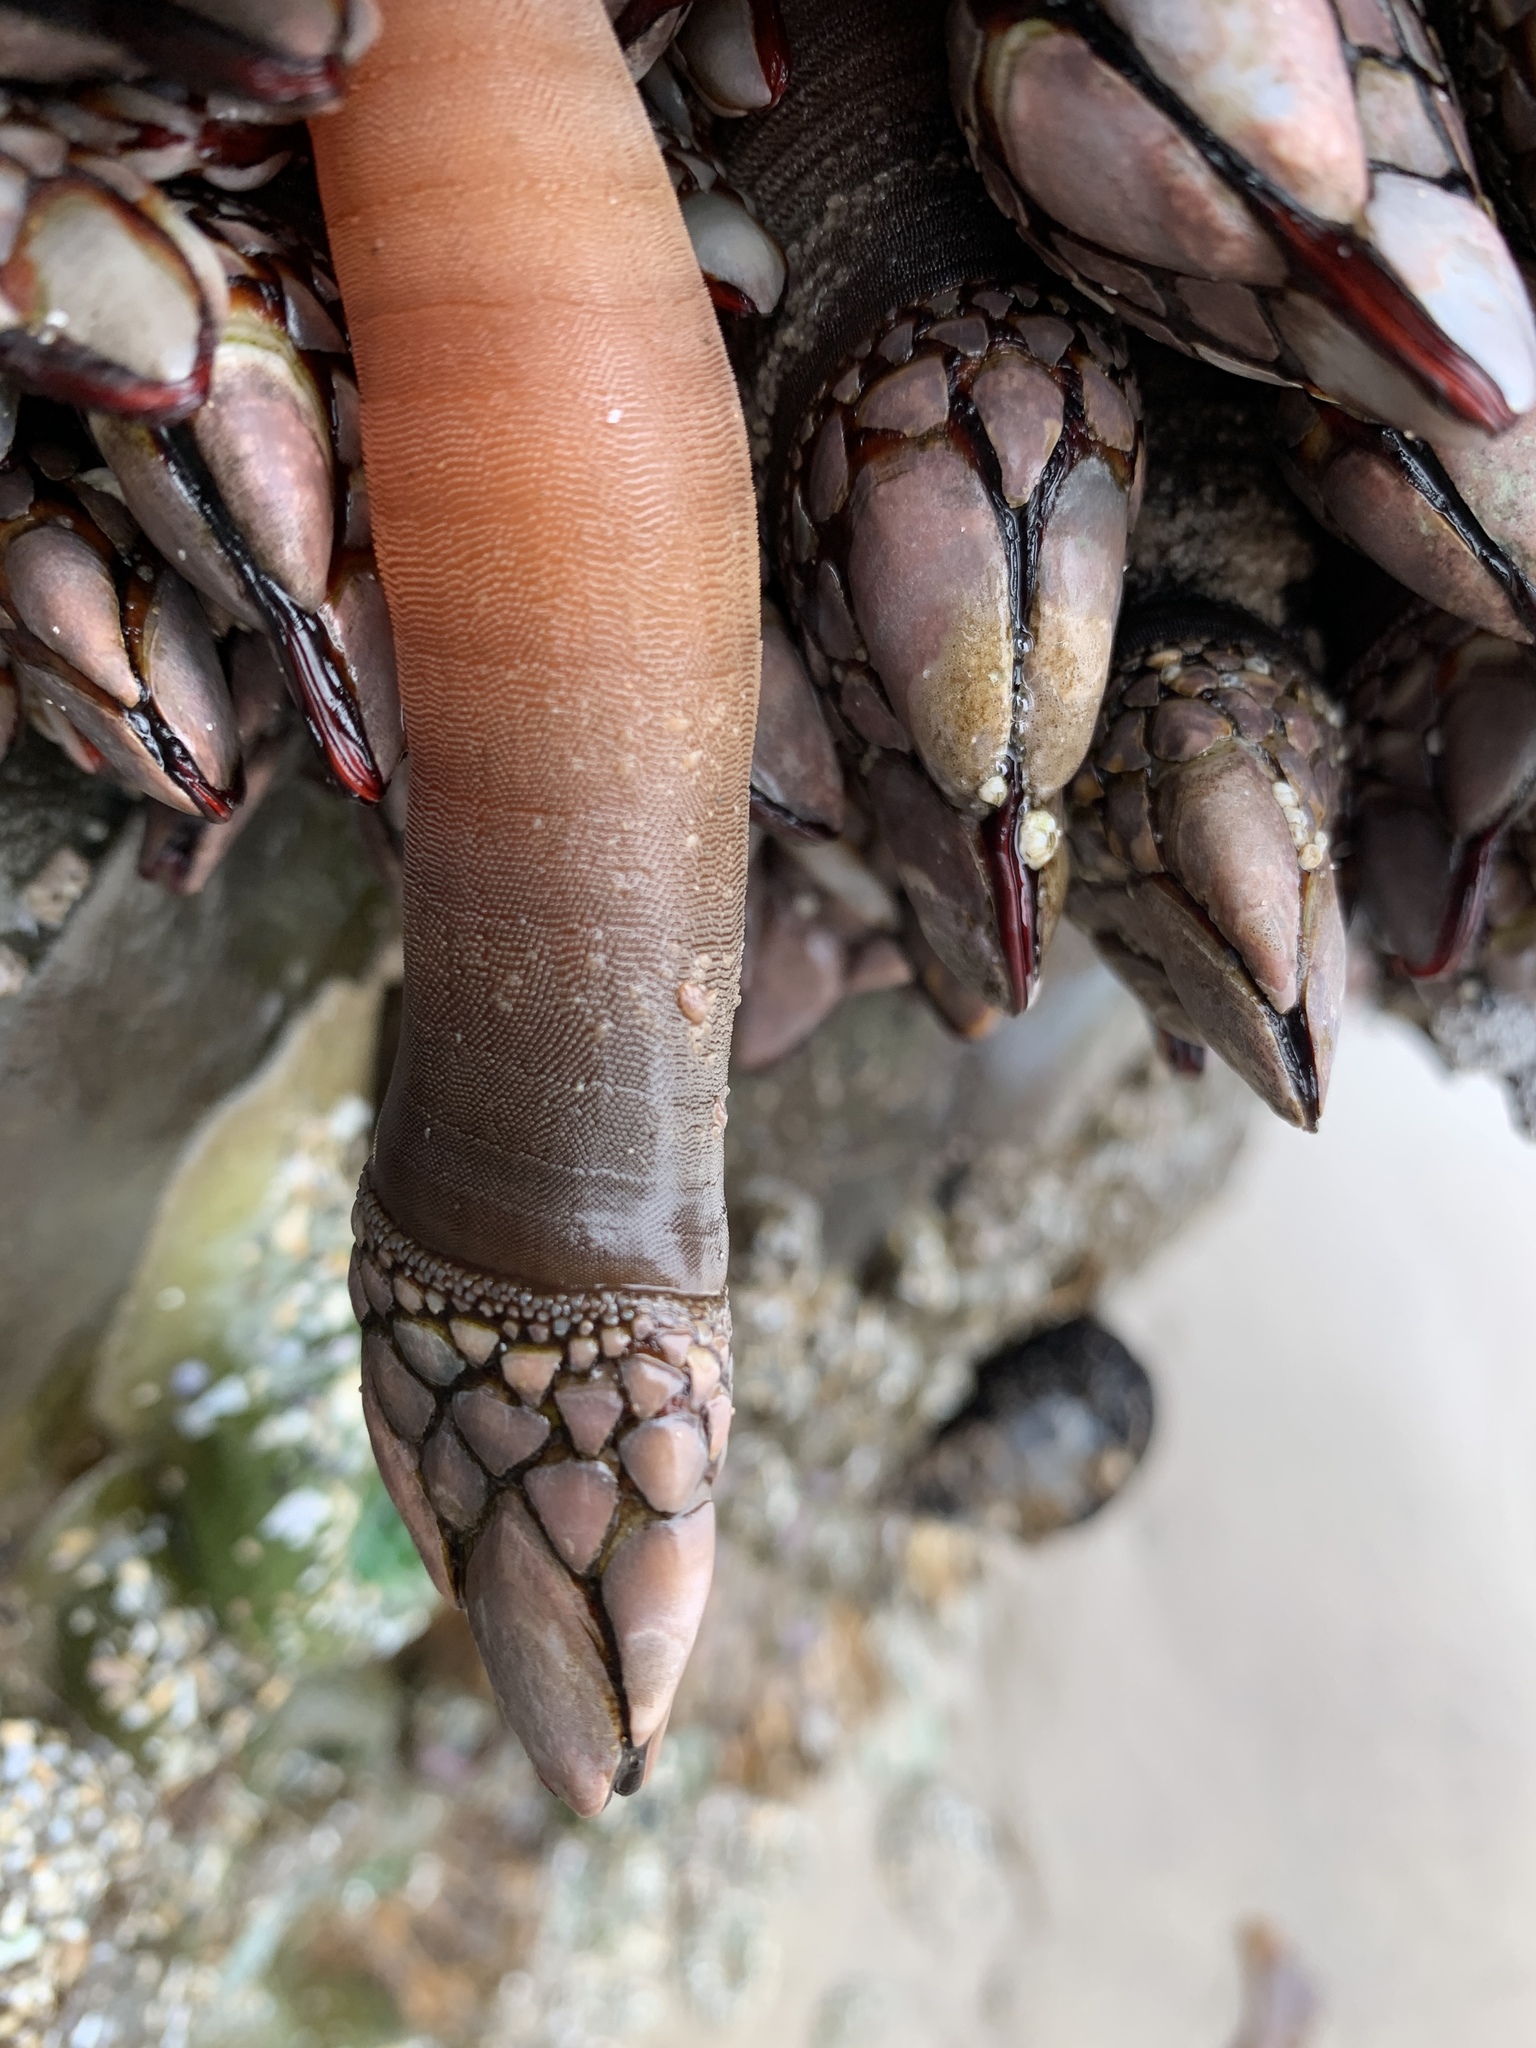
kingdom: Animalia
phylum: Arthropoda
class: Maxillopoda
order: Pedunculata
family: Pollicipedidae
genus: Pollicipes
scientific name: Pollicipes polymerus
